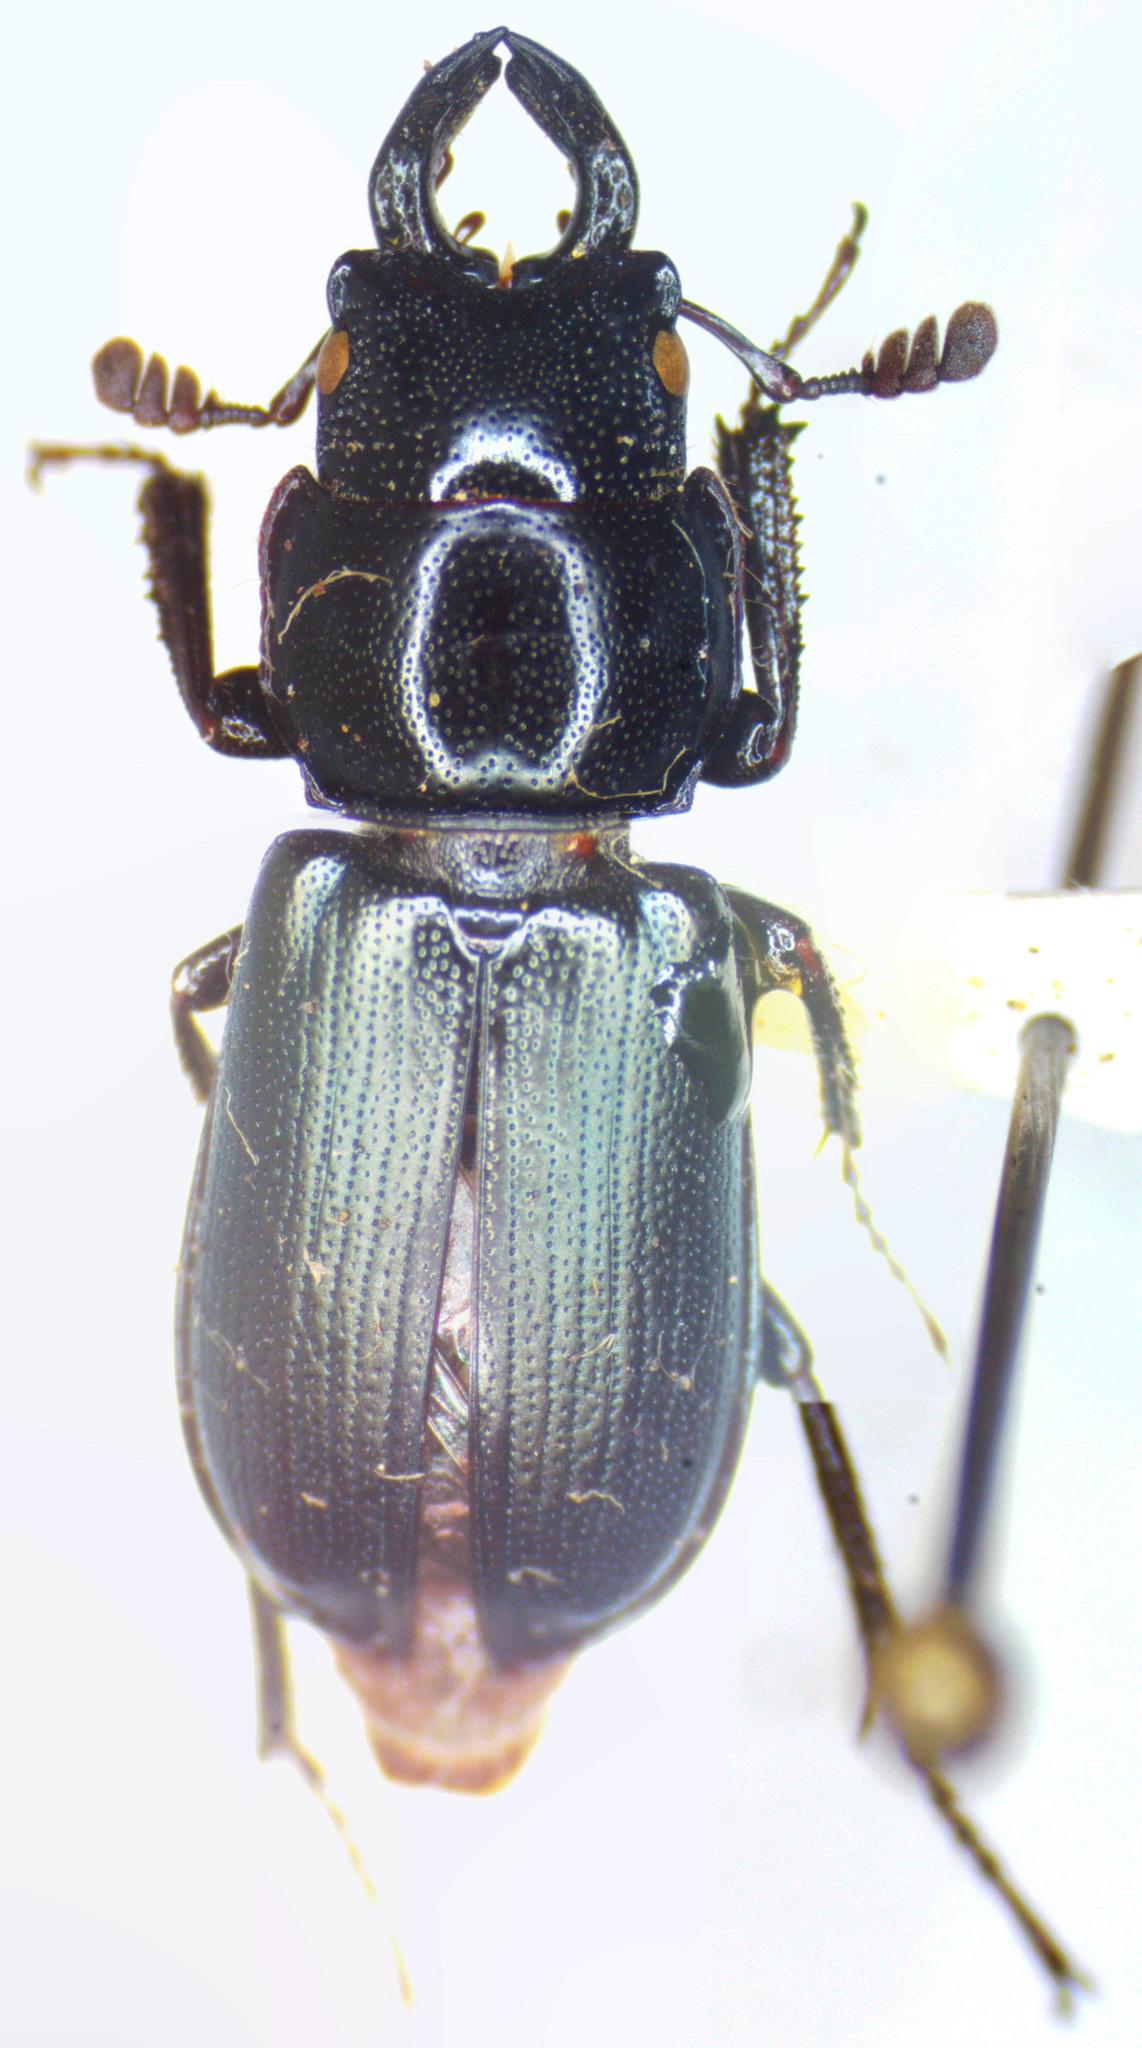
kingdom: Animalia
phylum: Arthropoda
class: Insecta
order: Coleoptera
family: Lucanidae
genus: Platycerus
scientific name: Platycerus oregonensis
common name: Oregon stag beetle
